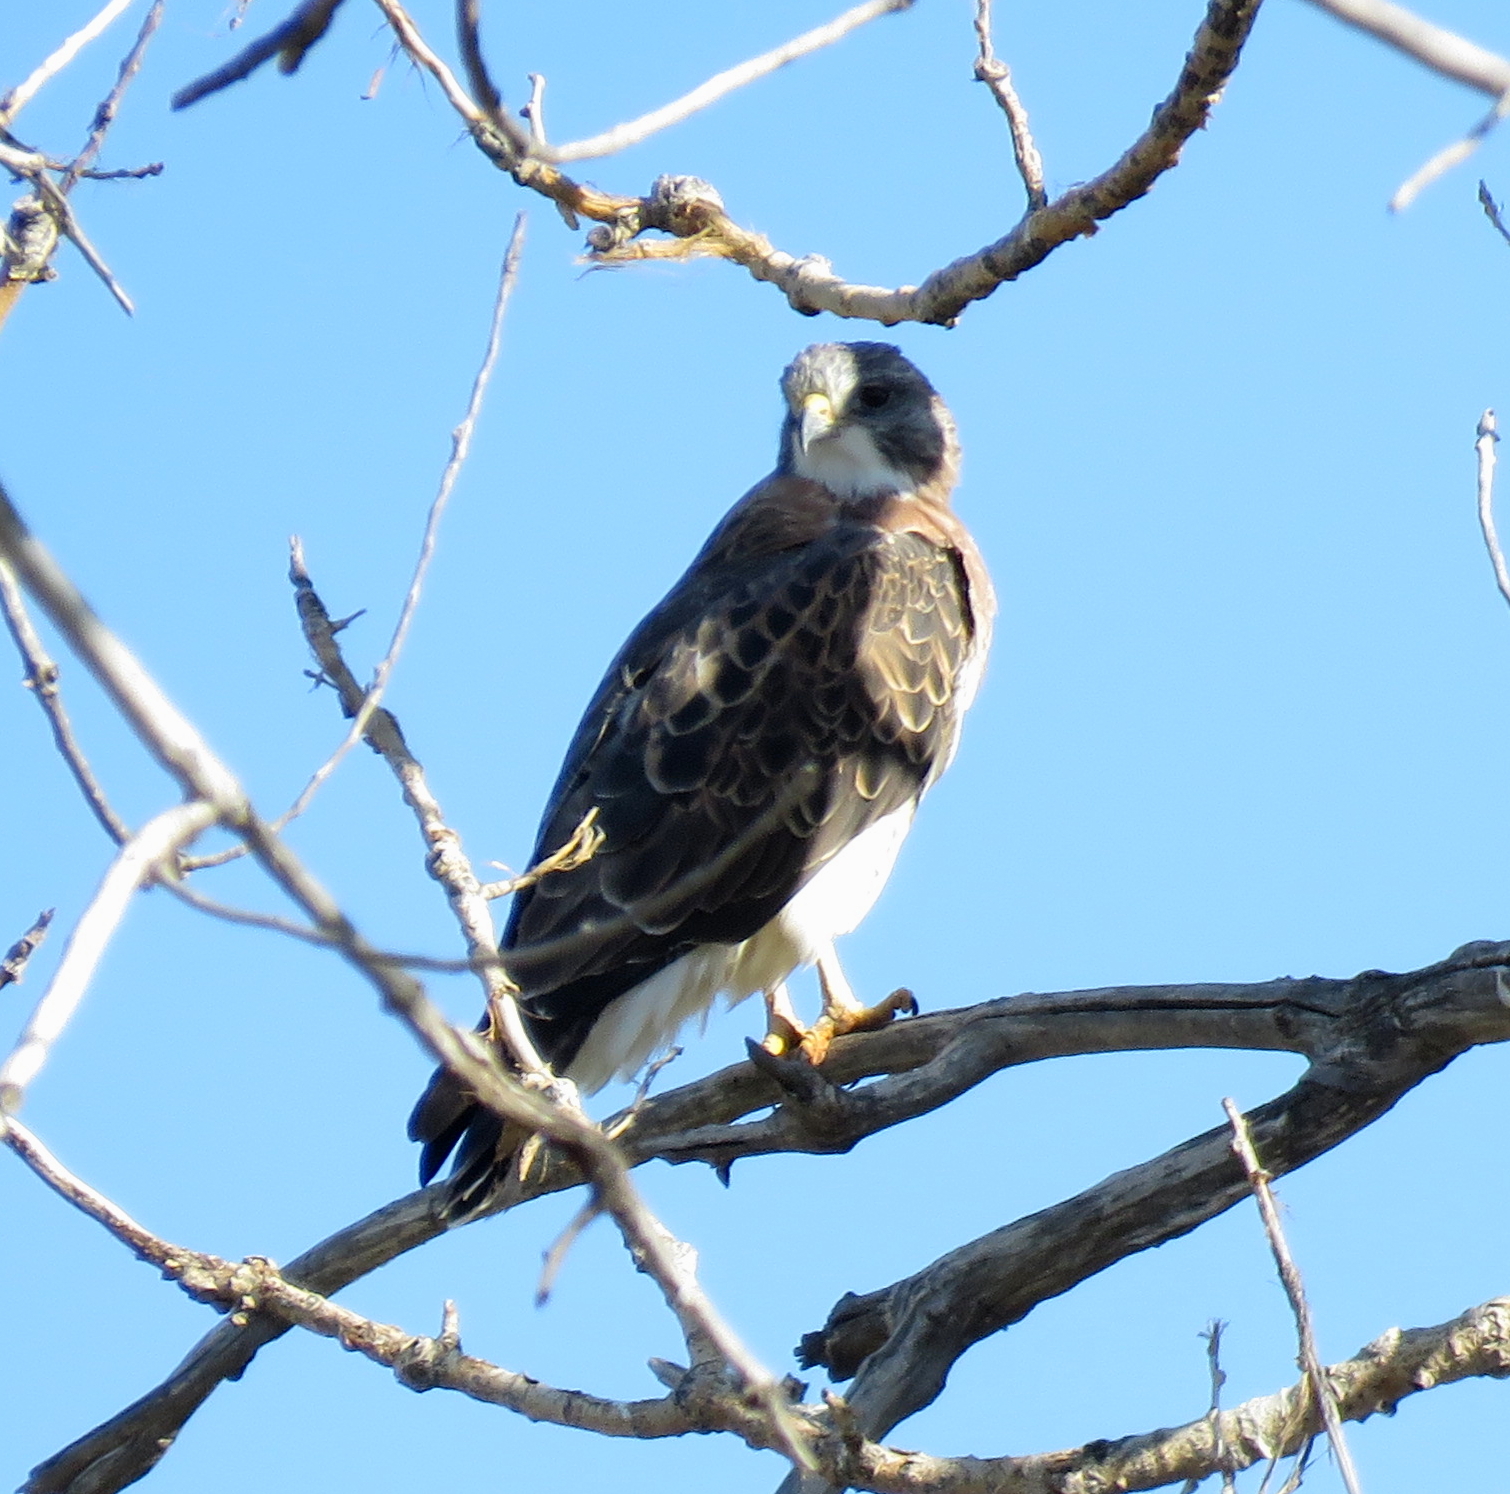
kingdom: Animalia
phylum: Chordata
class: Aves
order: Accipitriformes
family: Accipitridae
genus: Buteo
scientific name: Buteo swainsoni
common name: Swainson's hawk
